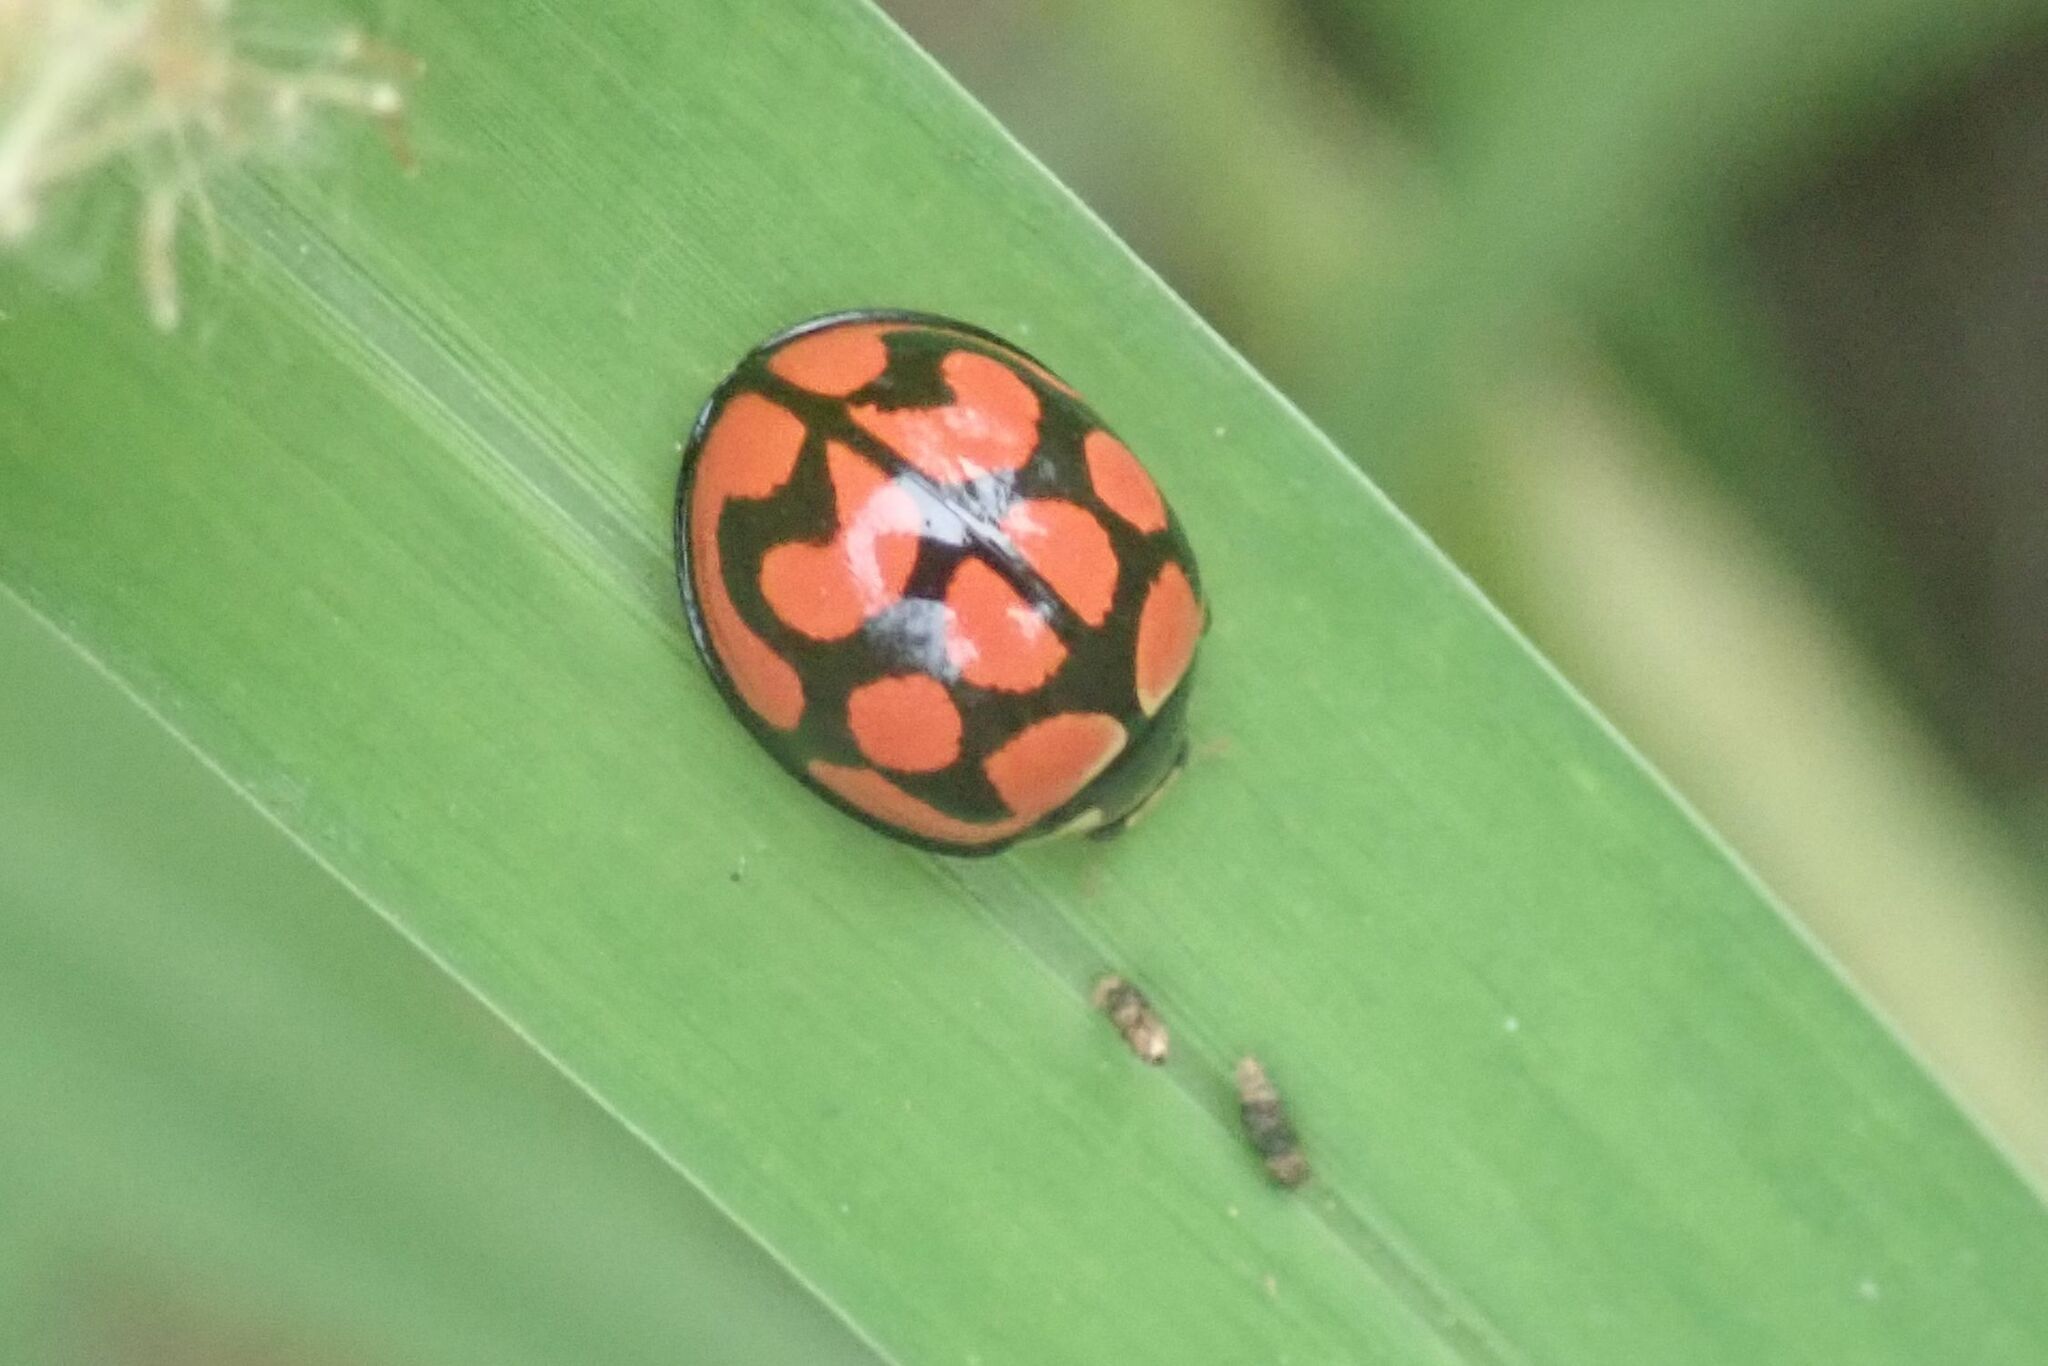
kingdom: Animalia
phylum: Arthropoda
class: Insecta
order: Coleoptera
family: Coccinellidae
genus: Cheilomenes
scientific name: Cheilomenes lunata
